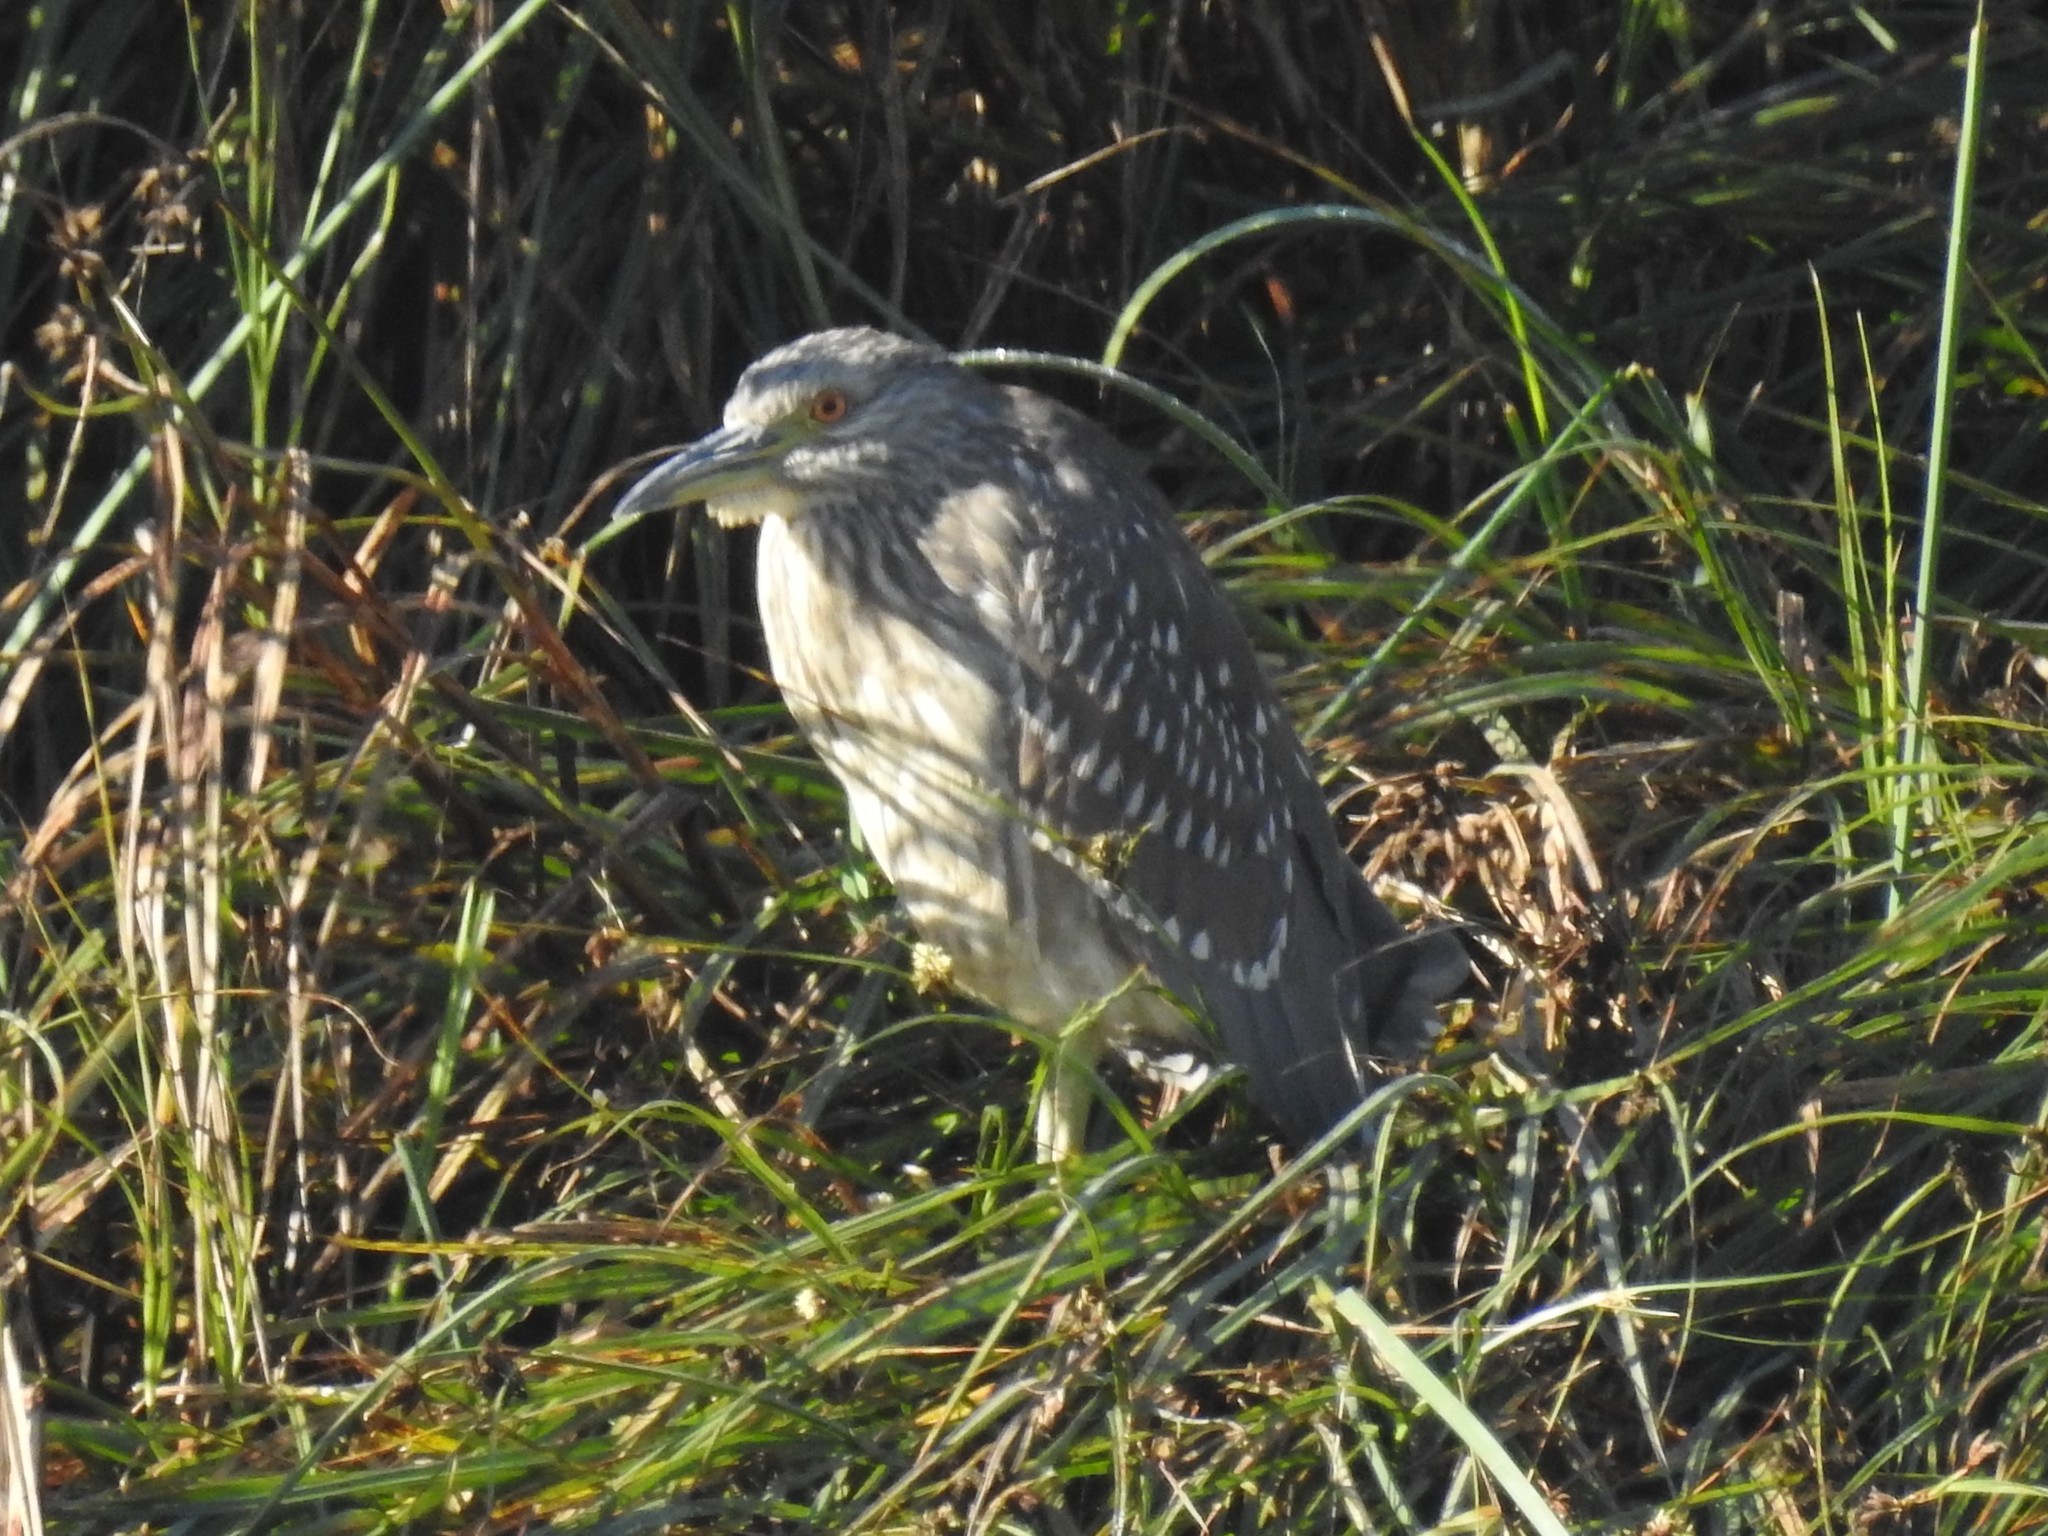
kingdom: Animalia
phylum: Chordata
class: Aves
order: Pelecaniformes
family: Ardeidae
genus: Nycticorax
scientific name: Nycticorax nycticorax
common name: Black-crowned night heron
